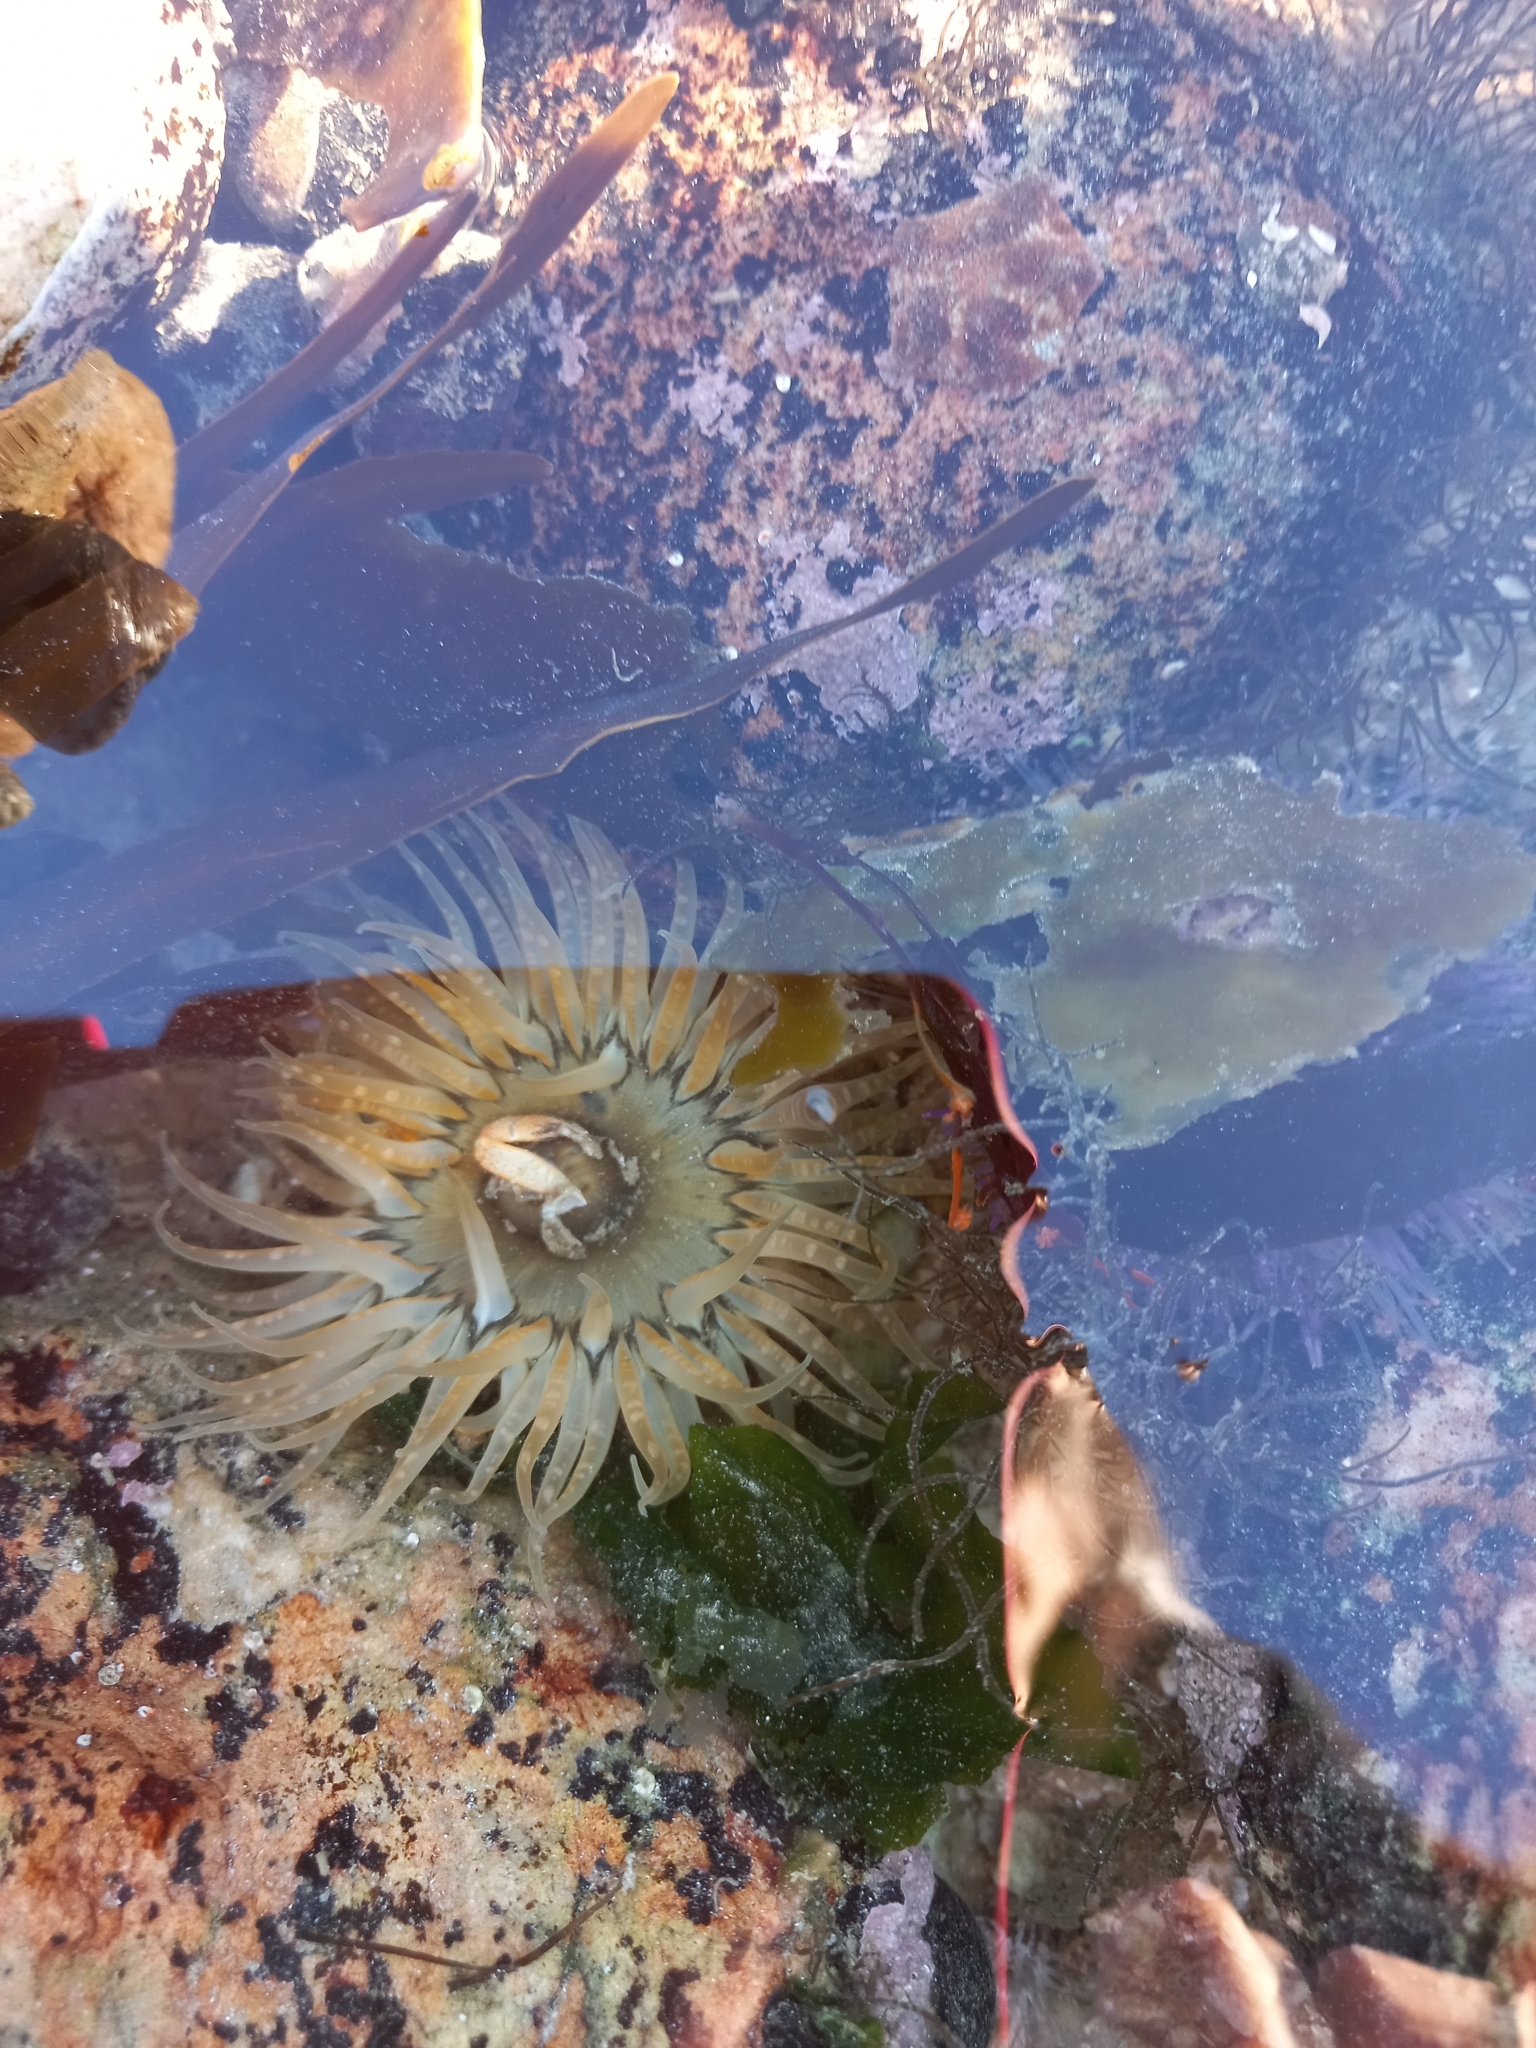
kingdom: Animalia
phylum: Cnidaria
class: Anthozoa
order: Actiniaria
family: Actiniidae
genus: Anthopleura
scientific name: Anthopleura michaelseni
